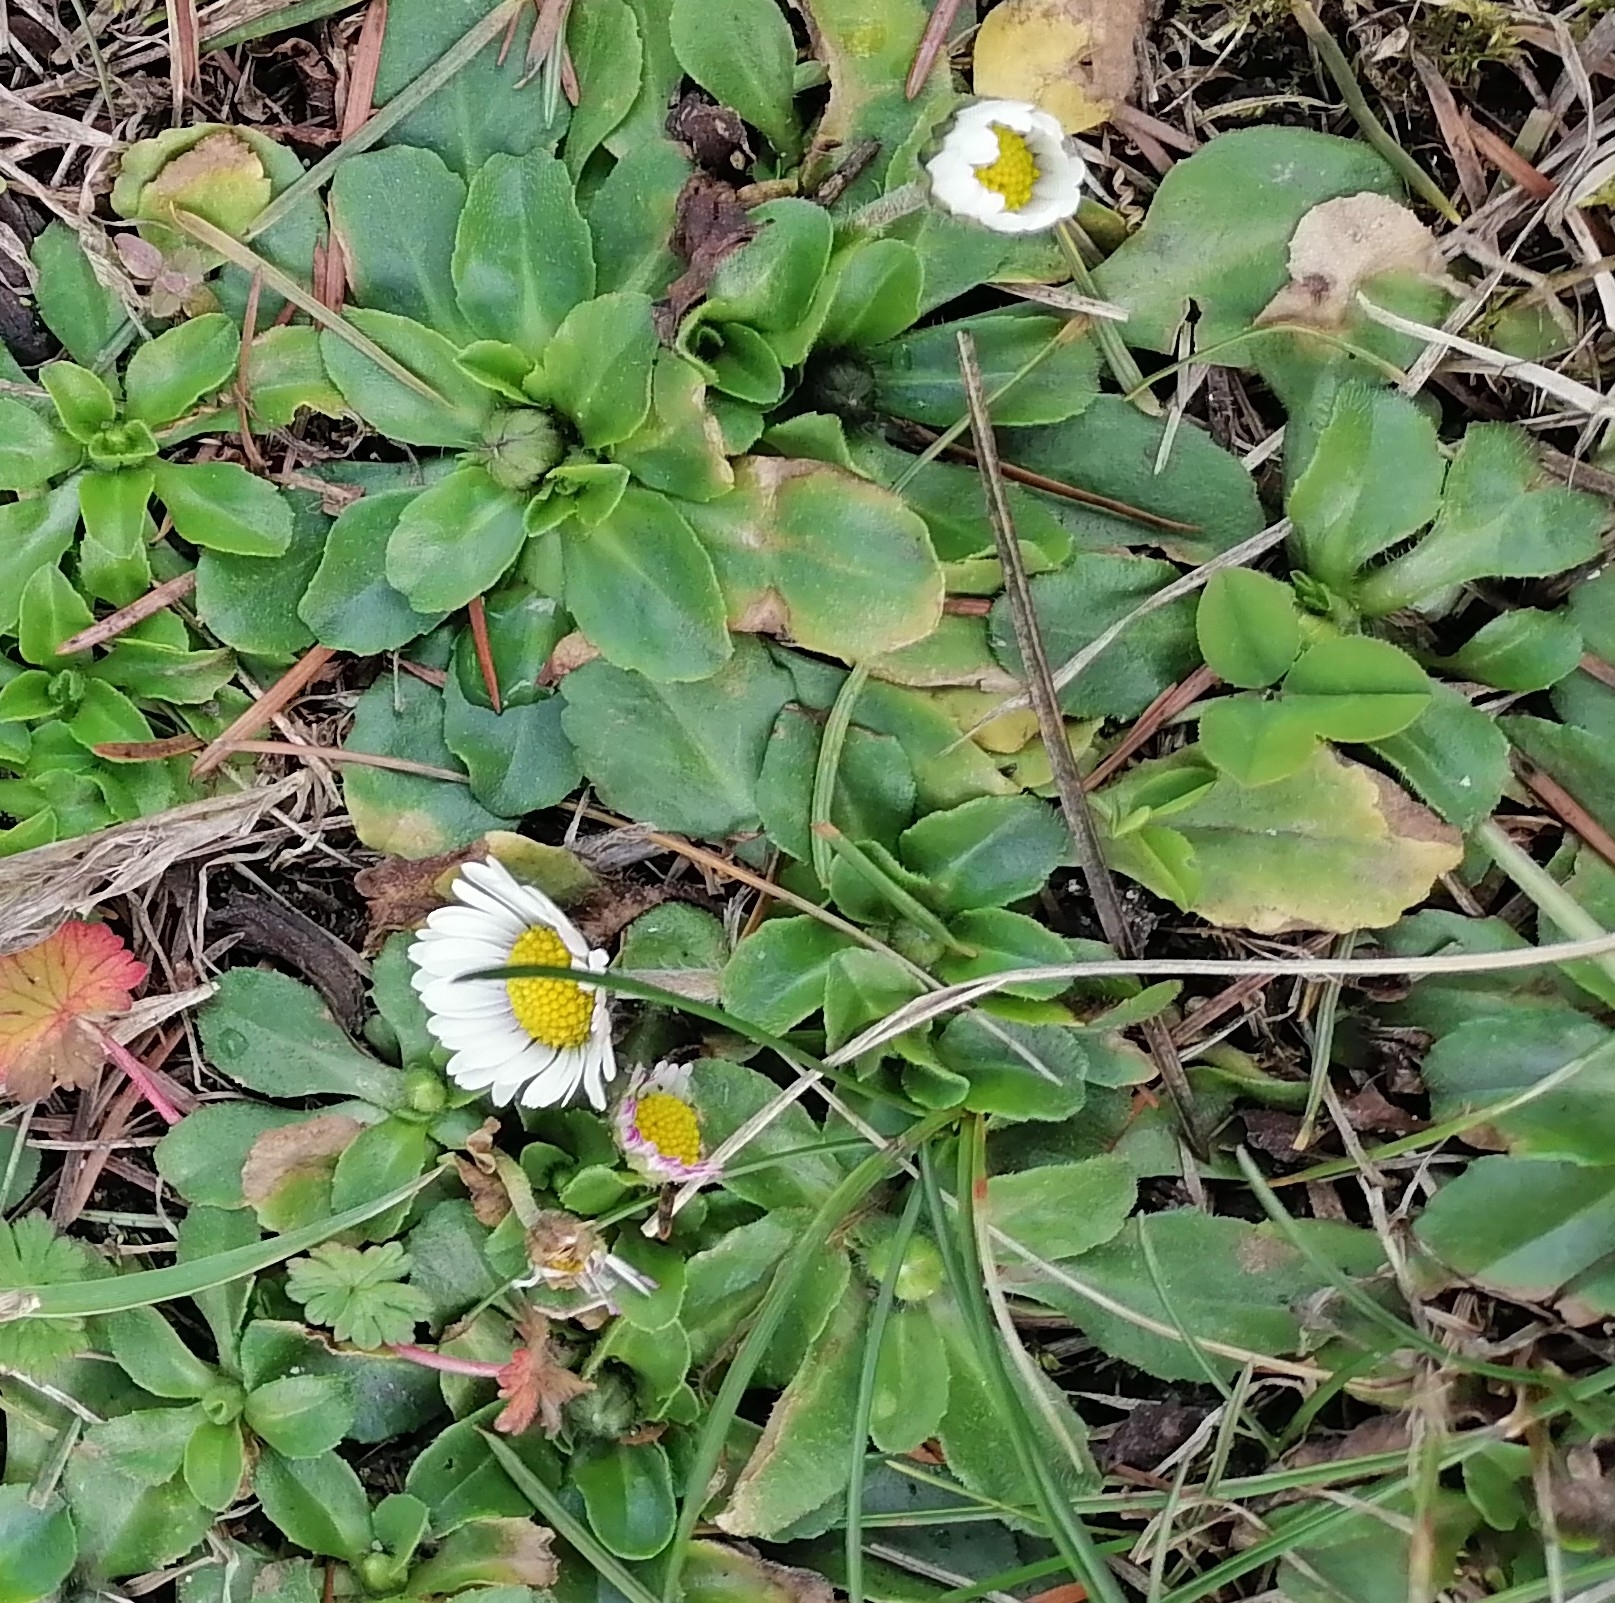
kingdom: Plantae
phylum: Tracheophyta
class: Magnoliopsida
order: Asterales
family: Asteraceae
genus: Bellis
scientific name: Bellis perennis
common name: Lawndaisy
